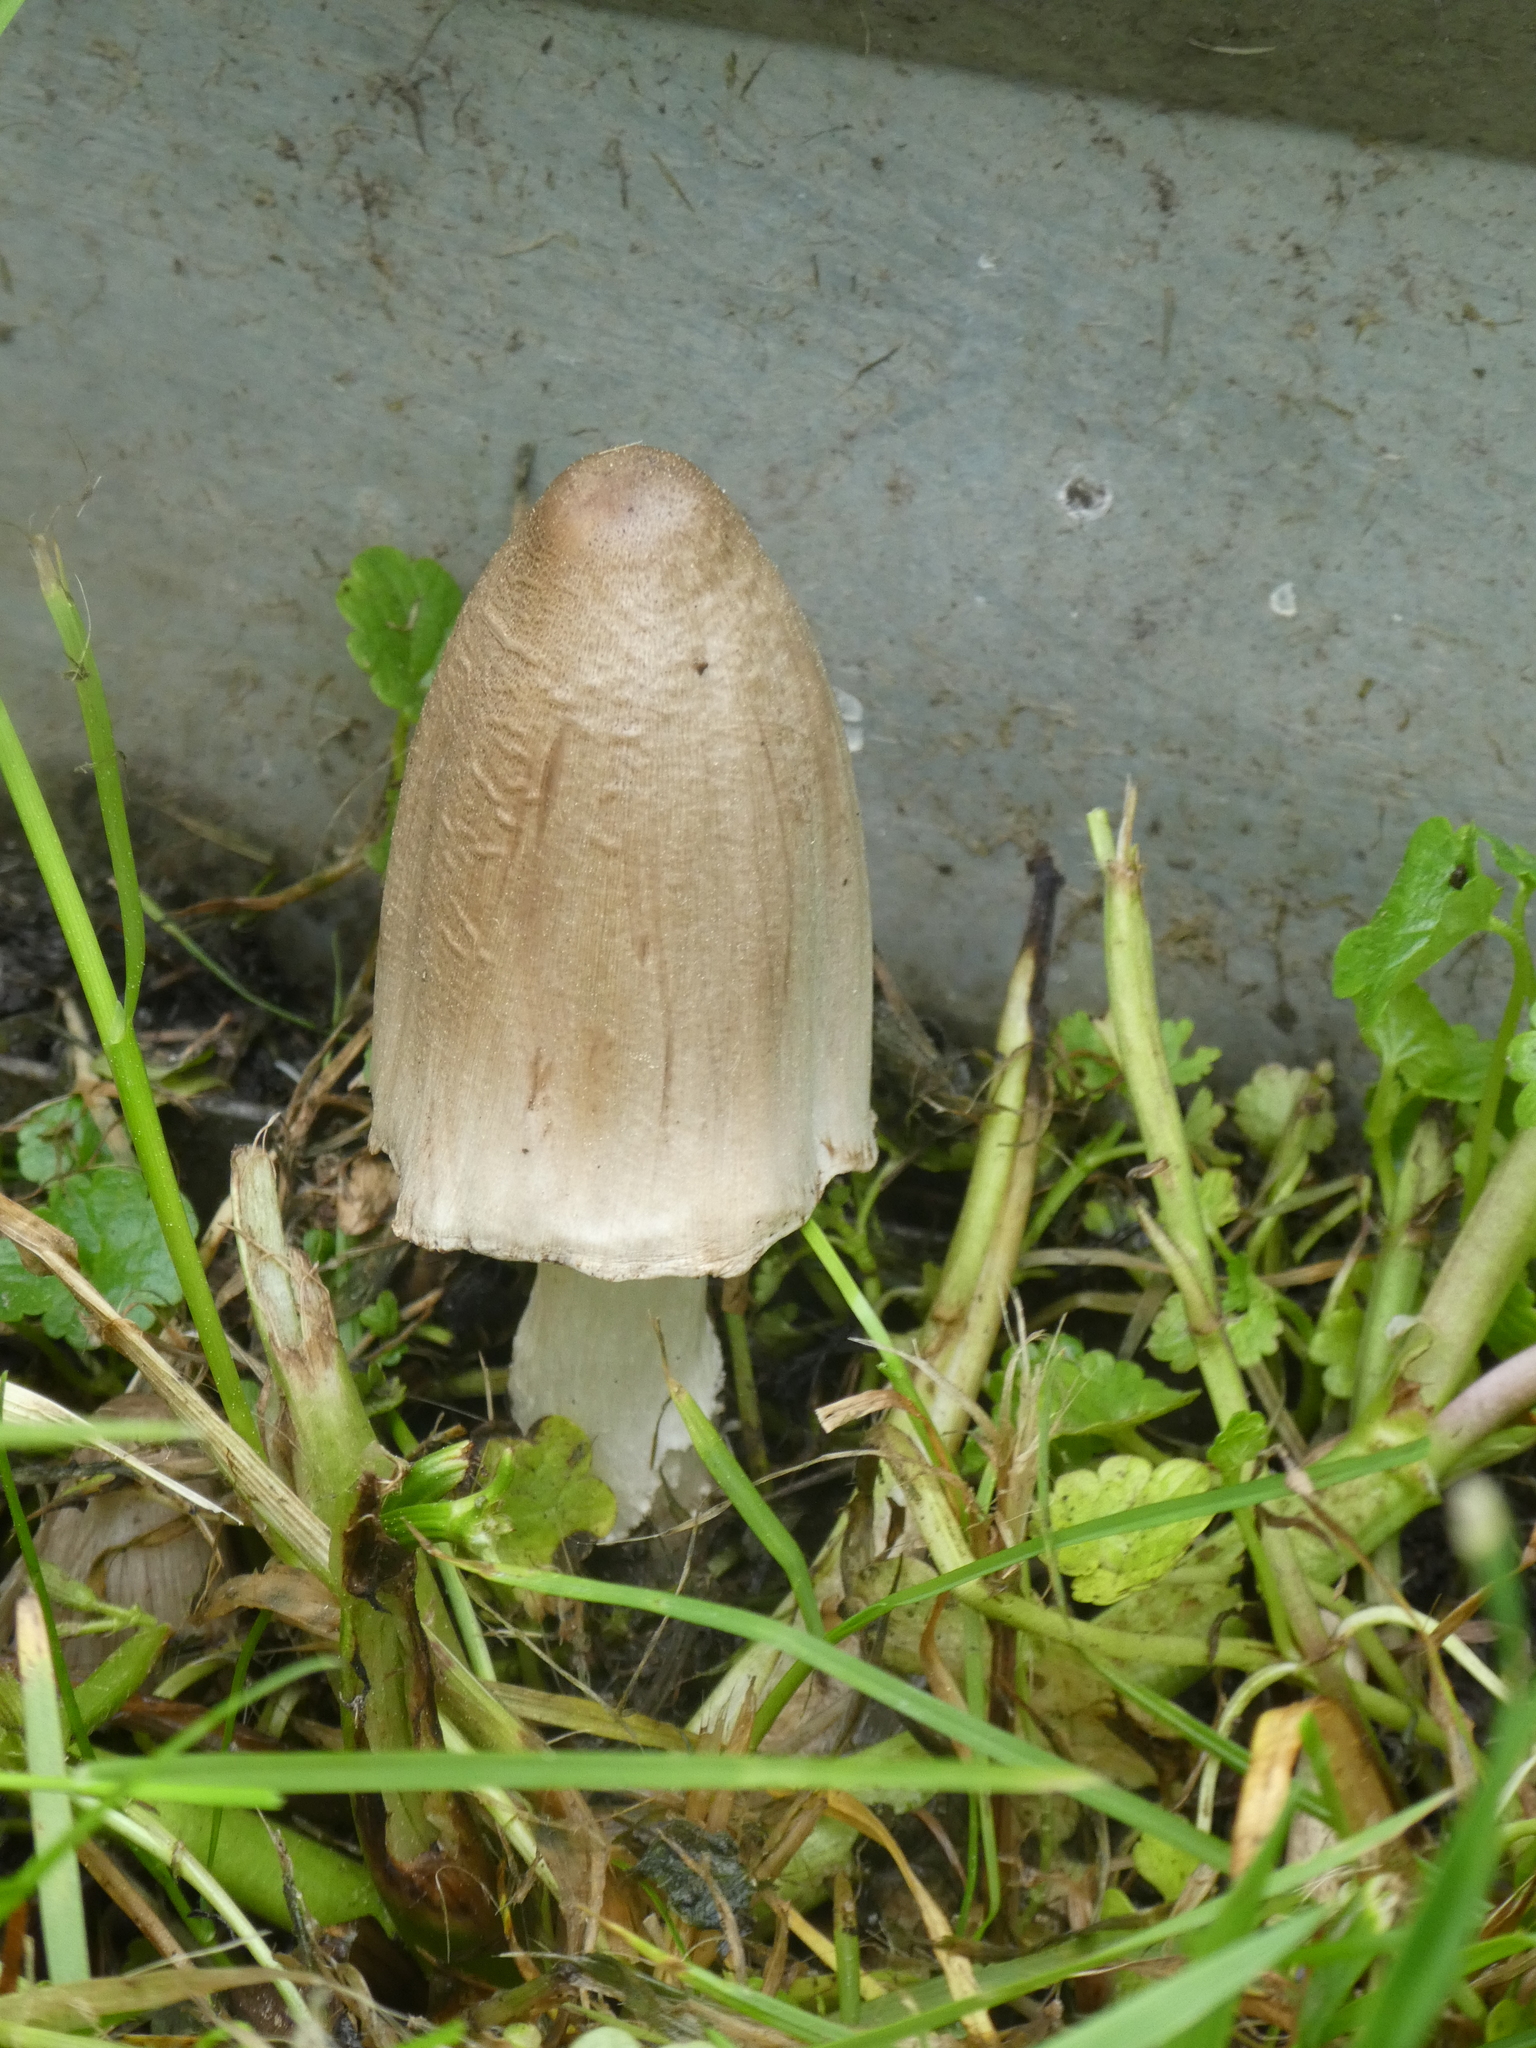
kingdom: Fungi
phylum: Basidiomycota
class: Agaricomycetes
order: Agaricales
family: Psathyrellaceae
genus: Coprinopsis
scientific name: Coprinopsis atramentaria
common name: Common ink-cap
